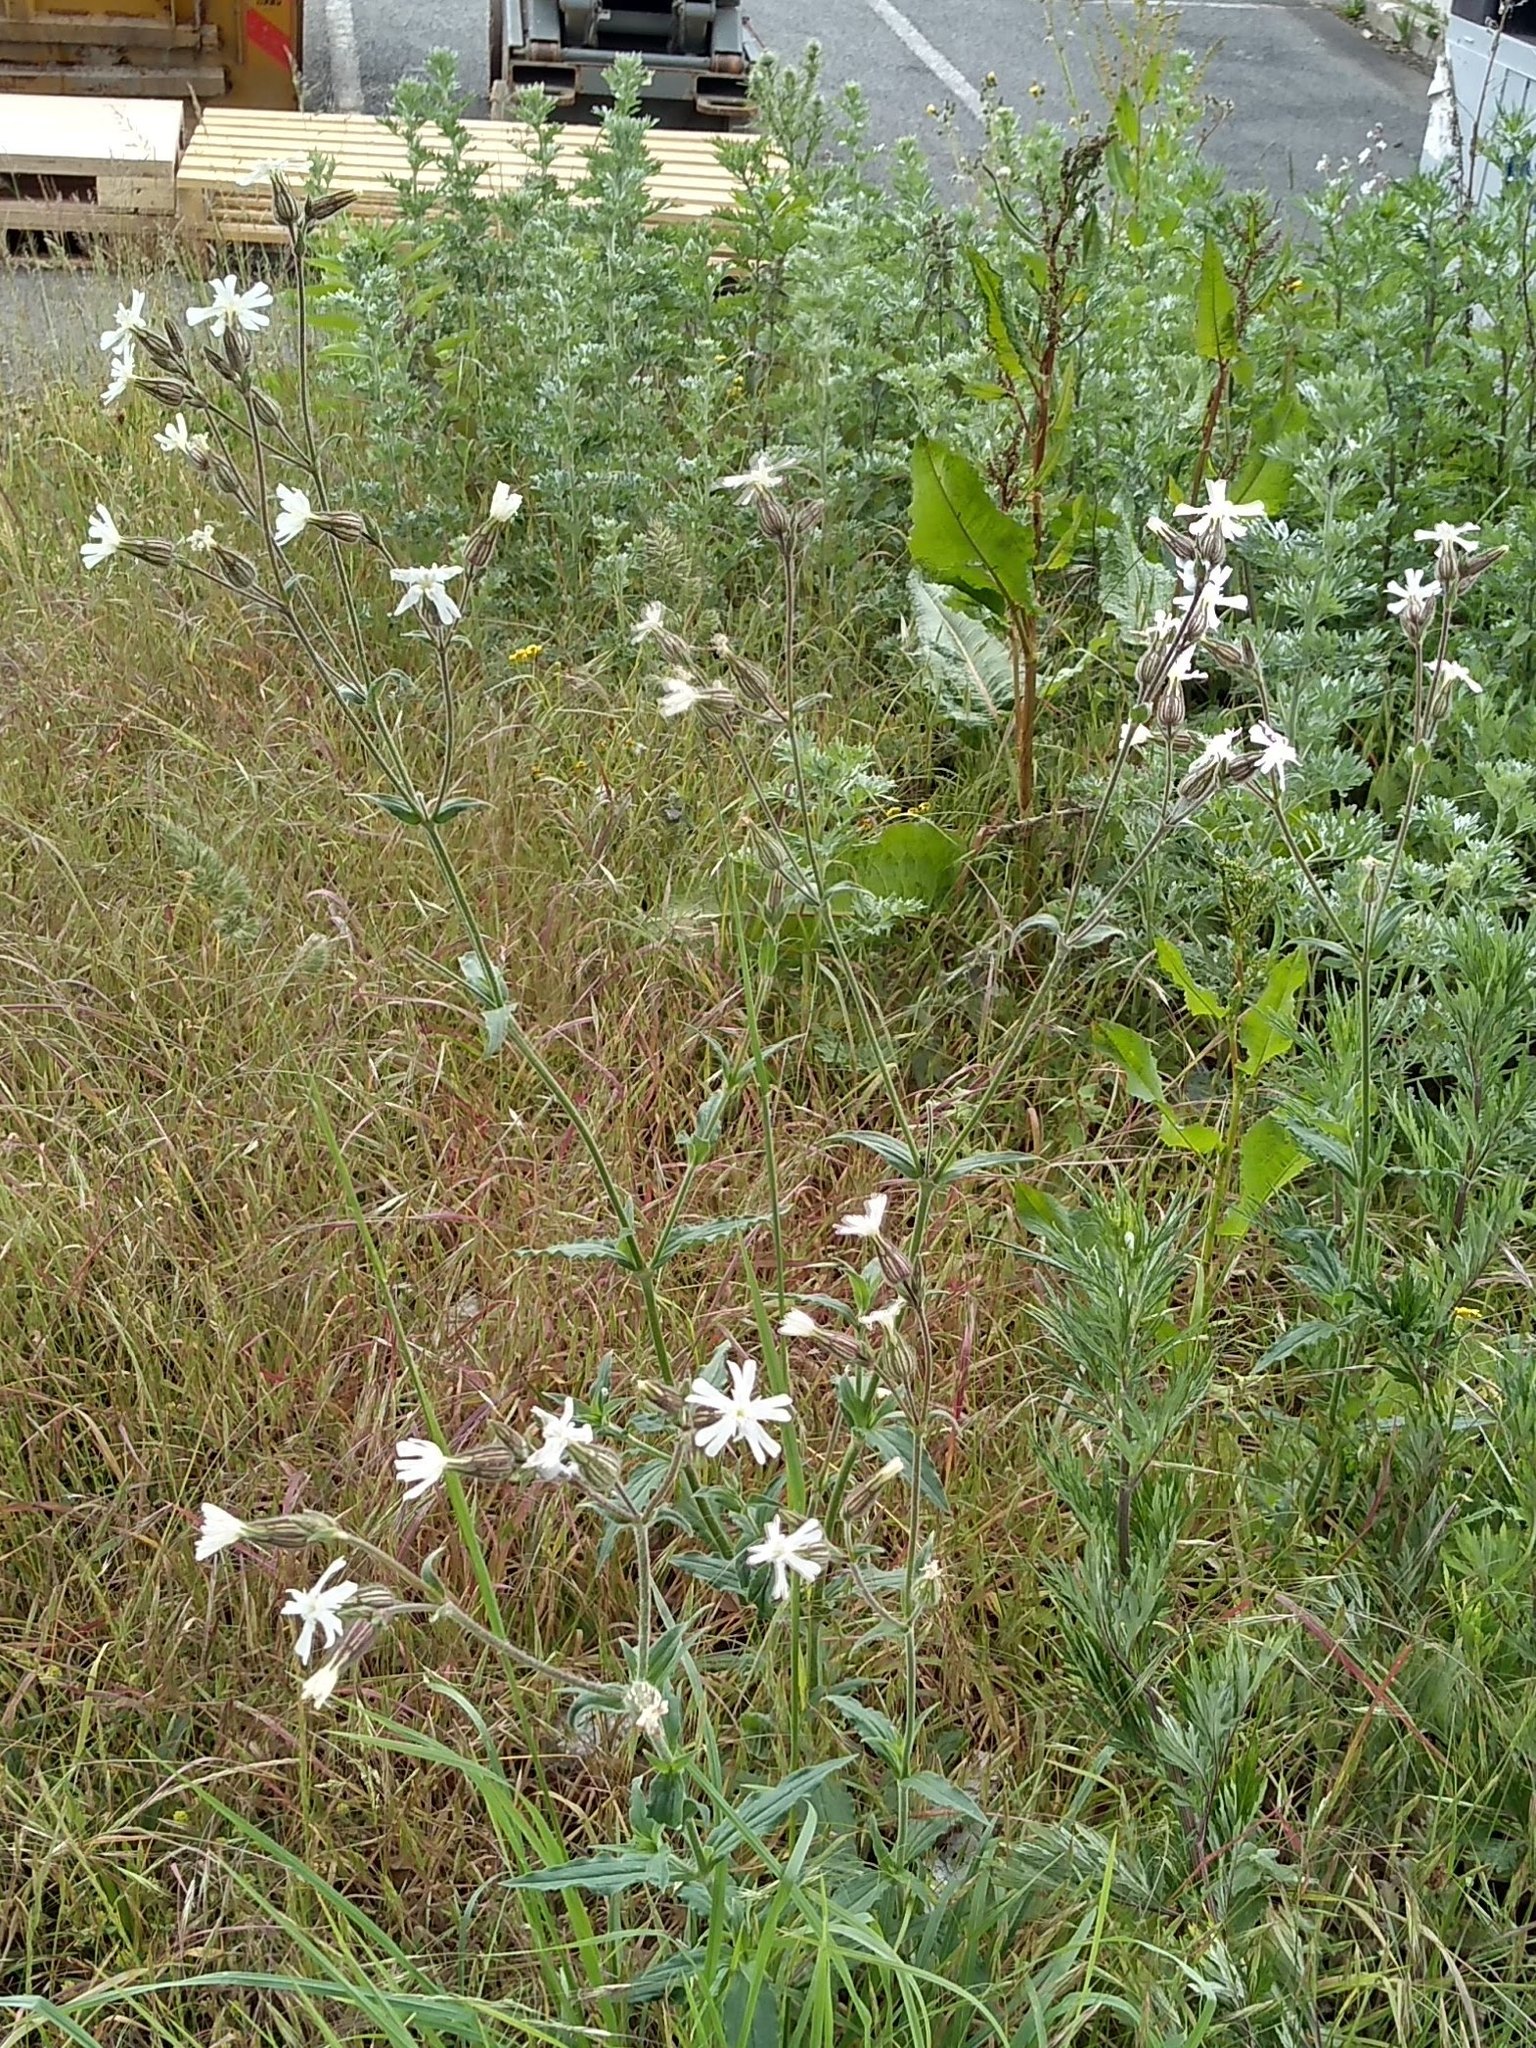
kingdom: Plantae
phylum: Tracheophyta
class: Magnoliopsida
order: Caryophyllales
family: Caryophyllaceae
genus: Silene
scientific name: Silene latifolia
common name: White campion
